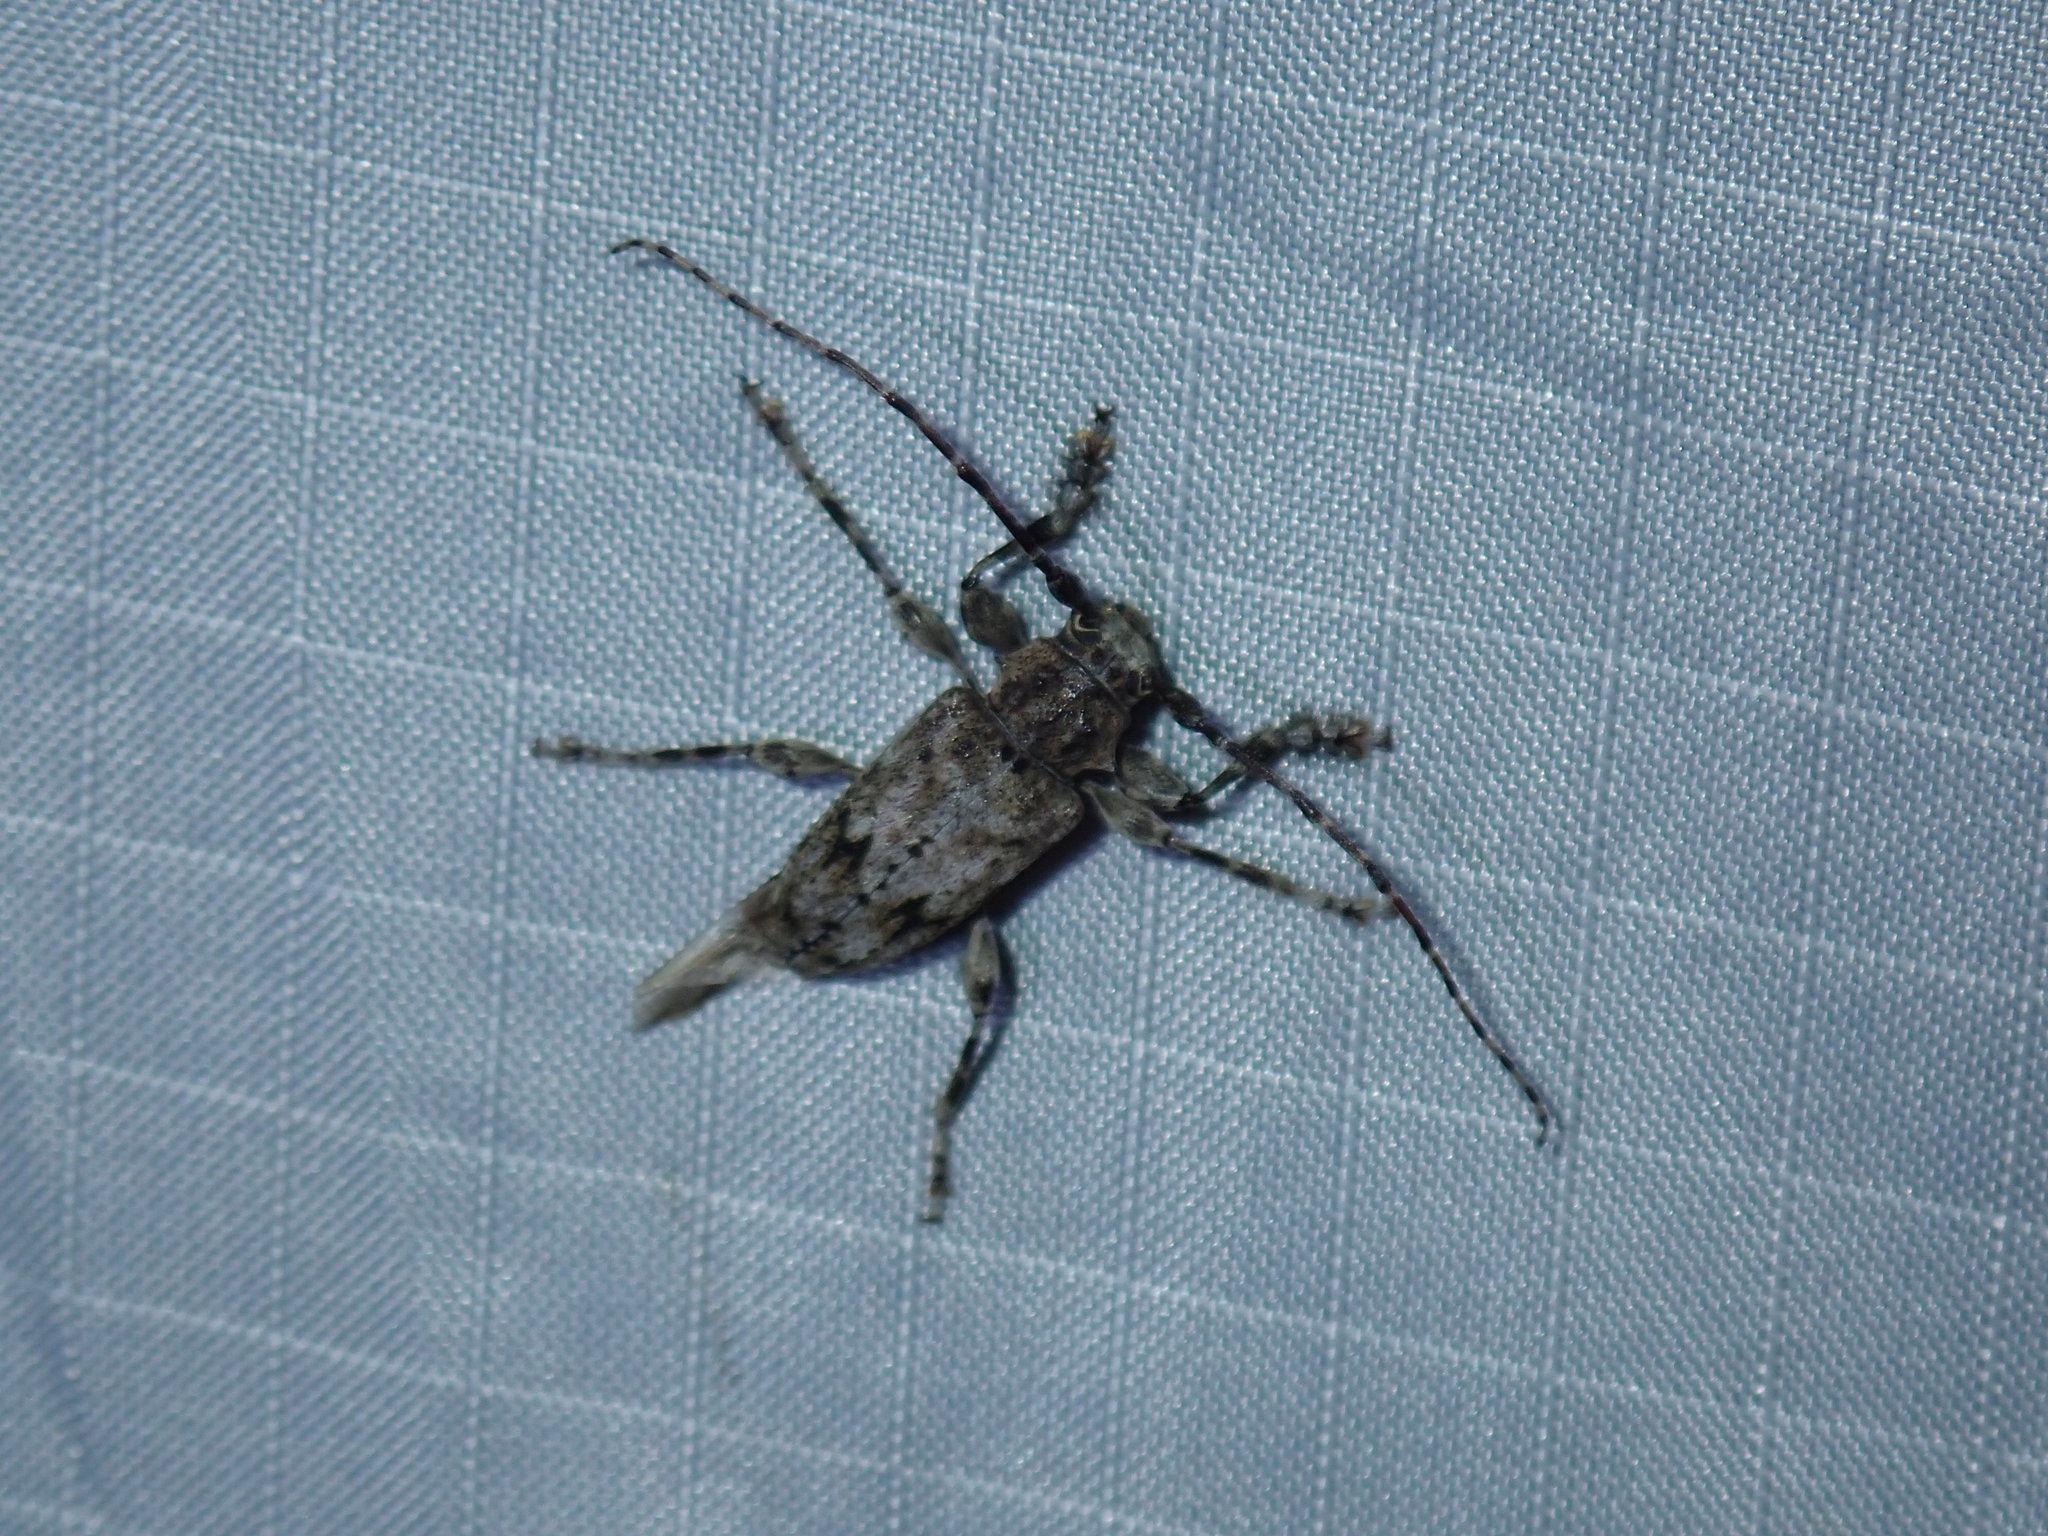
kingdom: Animalia
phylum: Arthropoda
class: Insecta
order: Coleoptera
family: Cerambycidae
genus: Aegomorphus
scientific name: Aegomorphus modestus
